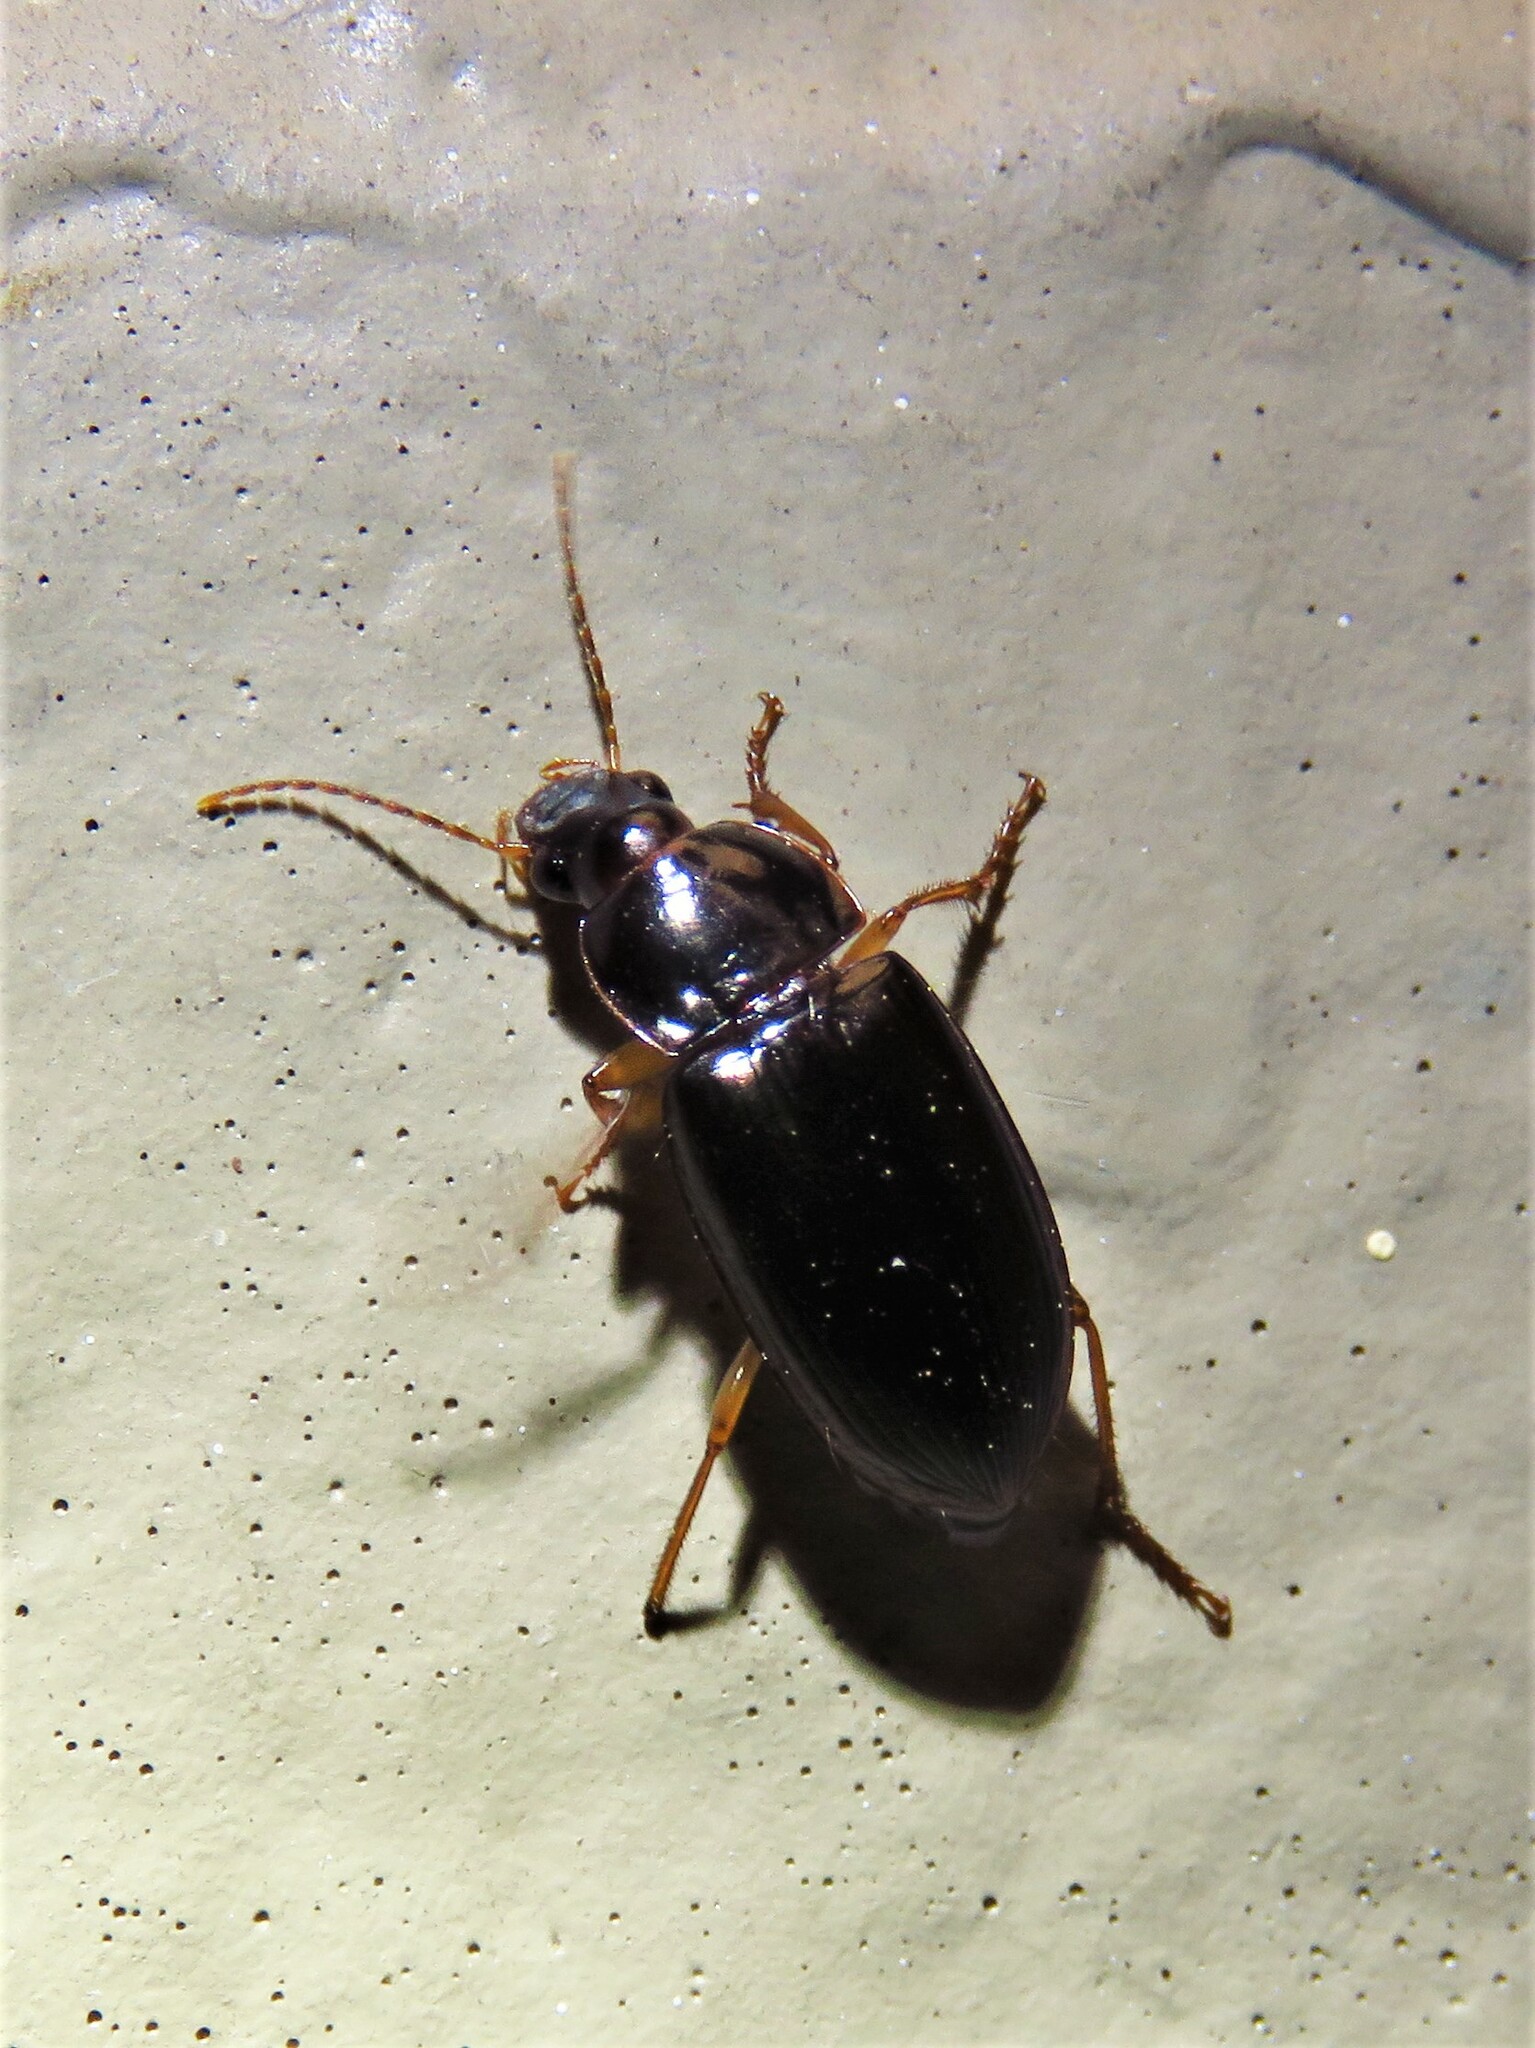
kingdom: Animalia
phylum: Arthropoda
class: Insecta
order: Coleoptera
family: Carabidae
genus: Notiobia
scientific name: Notiobia terminata
